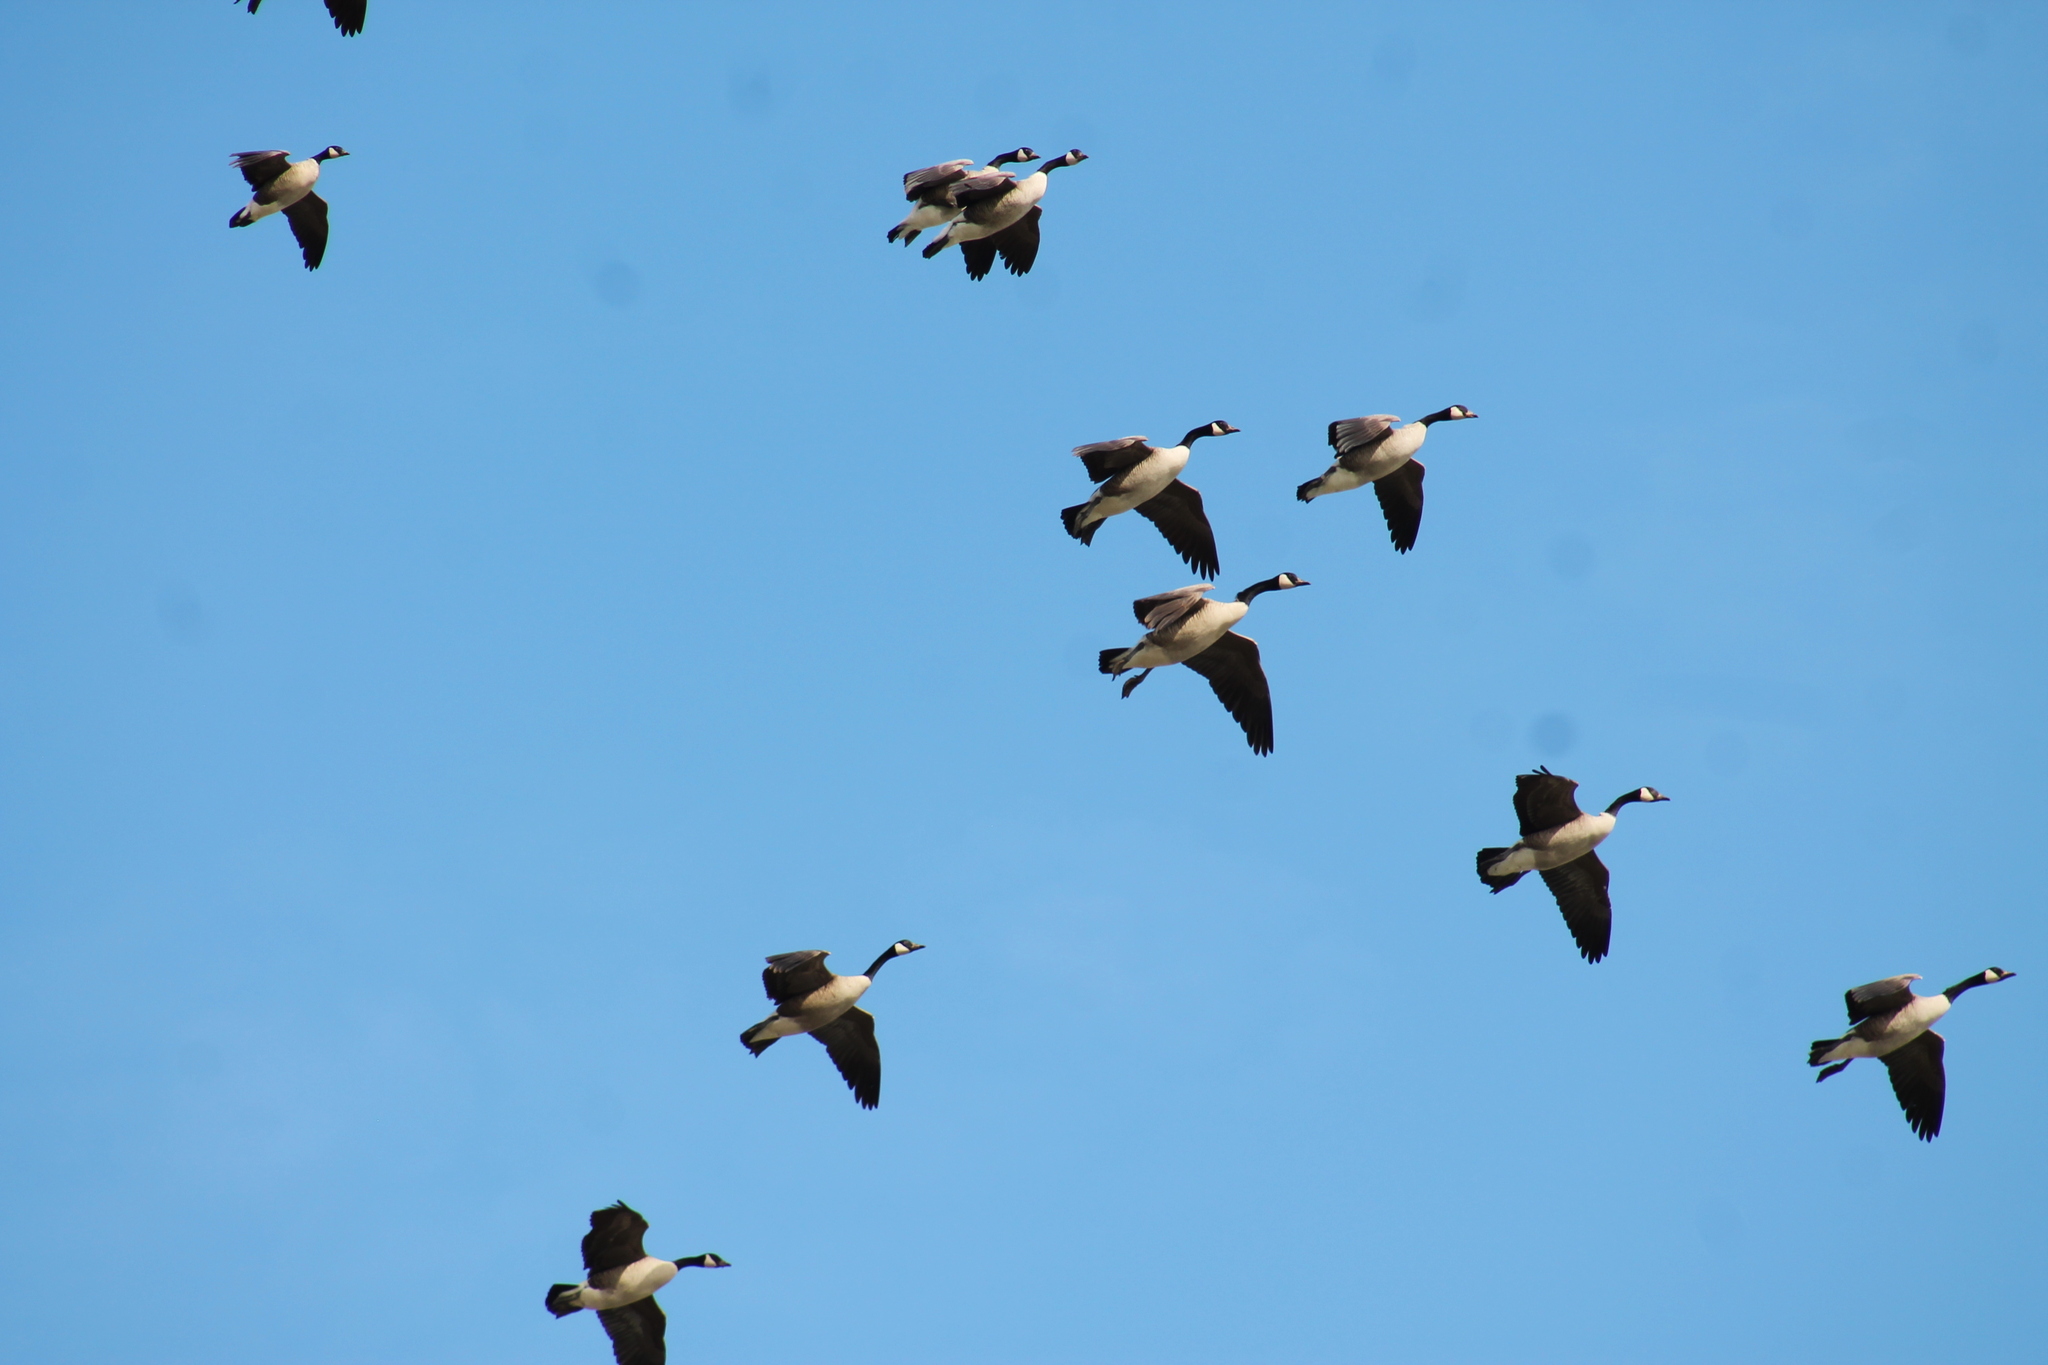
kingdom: Animalia
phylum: Chordata
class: Aves
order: Anseriformes
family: Anatidae
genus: Branta
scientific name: Branta canadensis
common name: Canada goose
